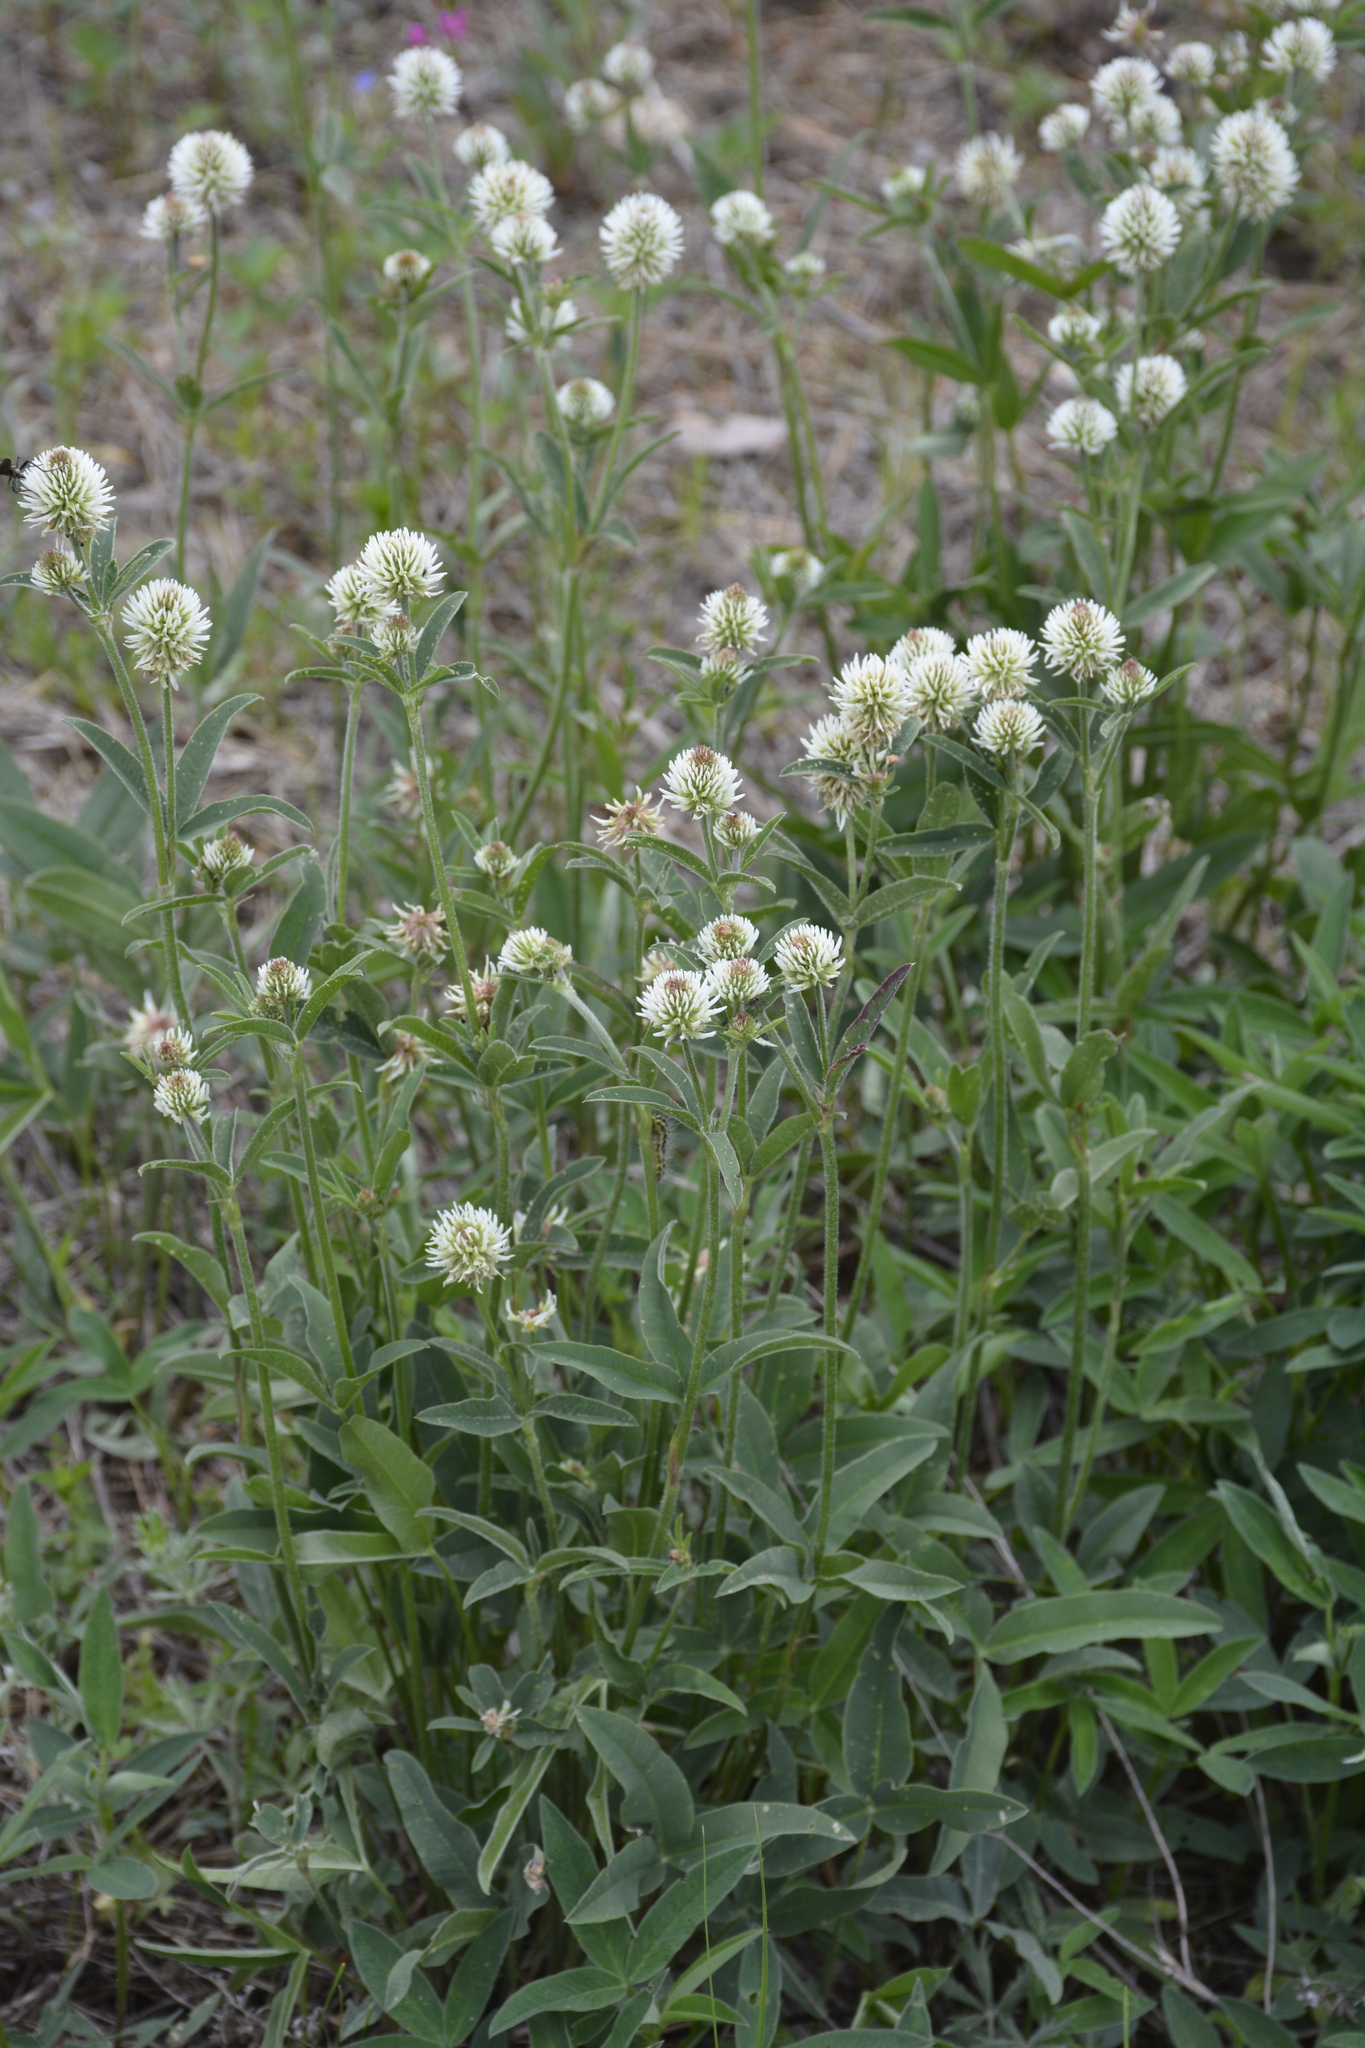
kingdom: Plantae
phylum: Tracheophyta
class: Magnoliopsida
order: Fabales
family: Fabaceae
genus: Trifolium
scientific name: Trifolium montanum
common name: Mountain clover
